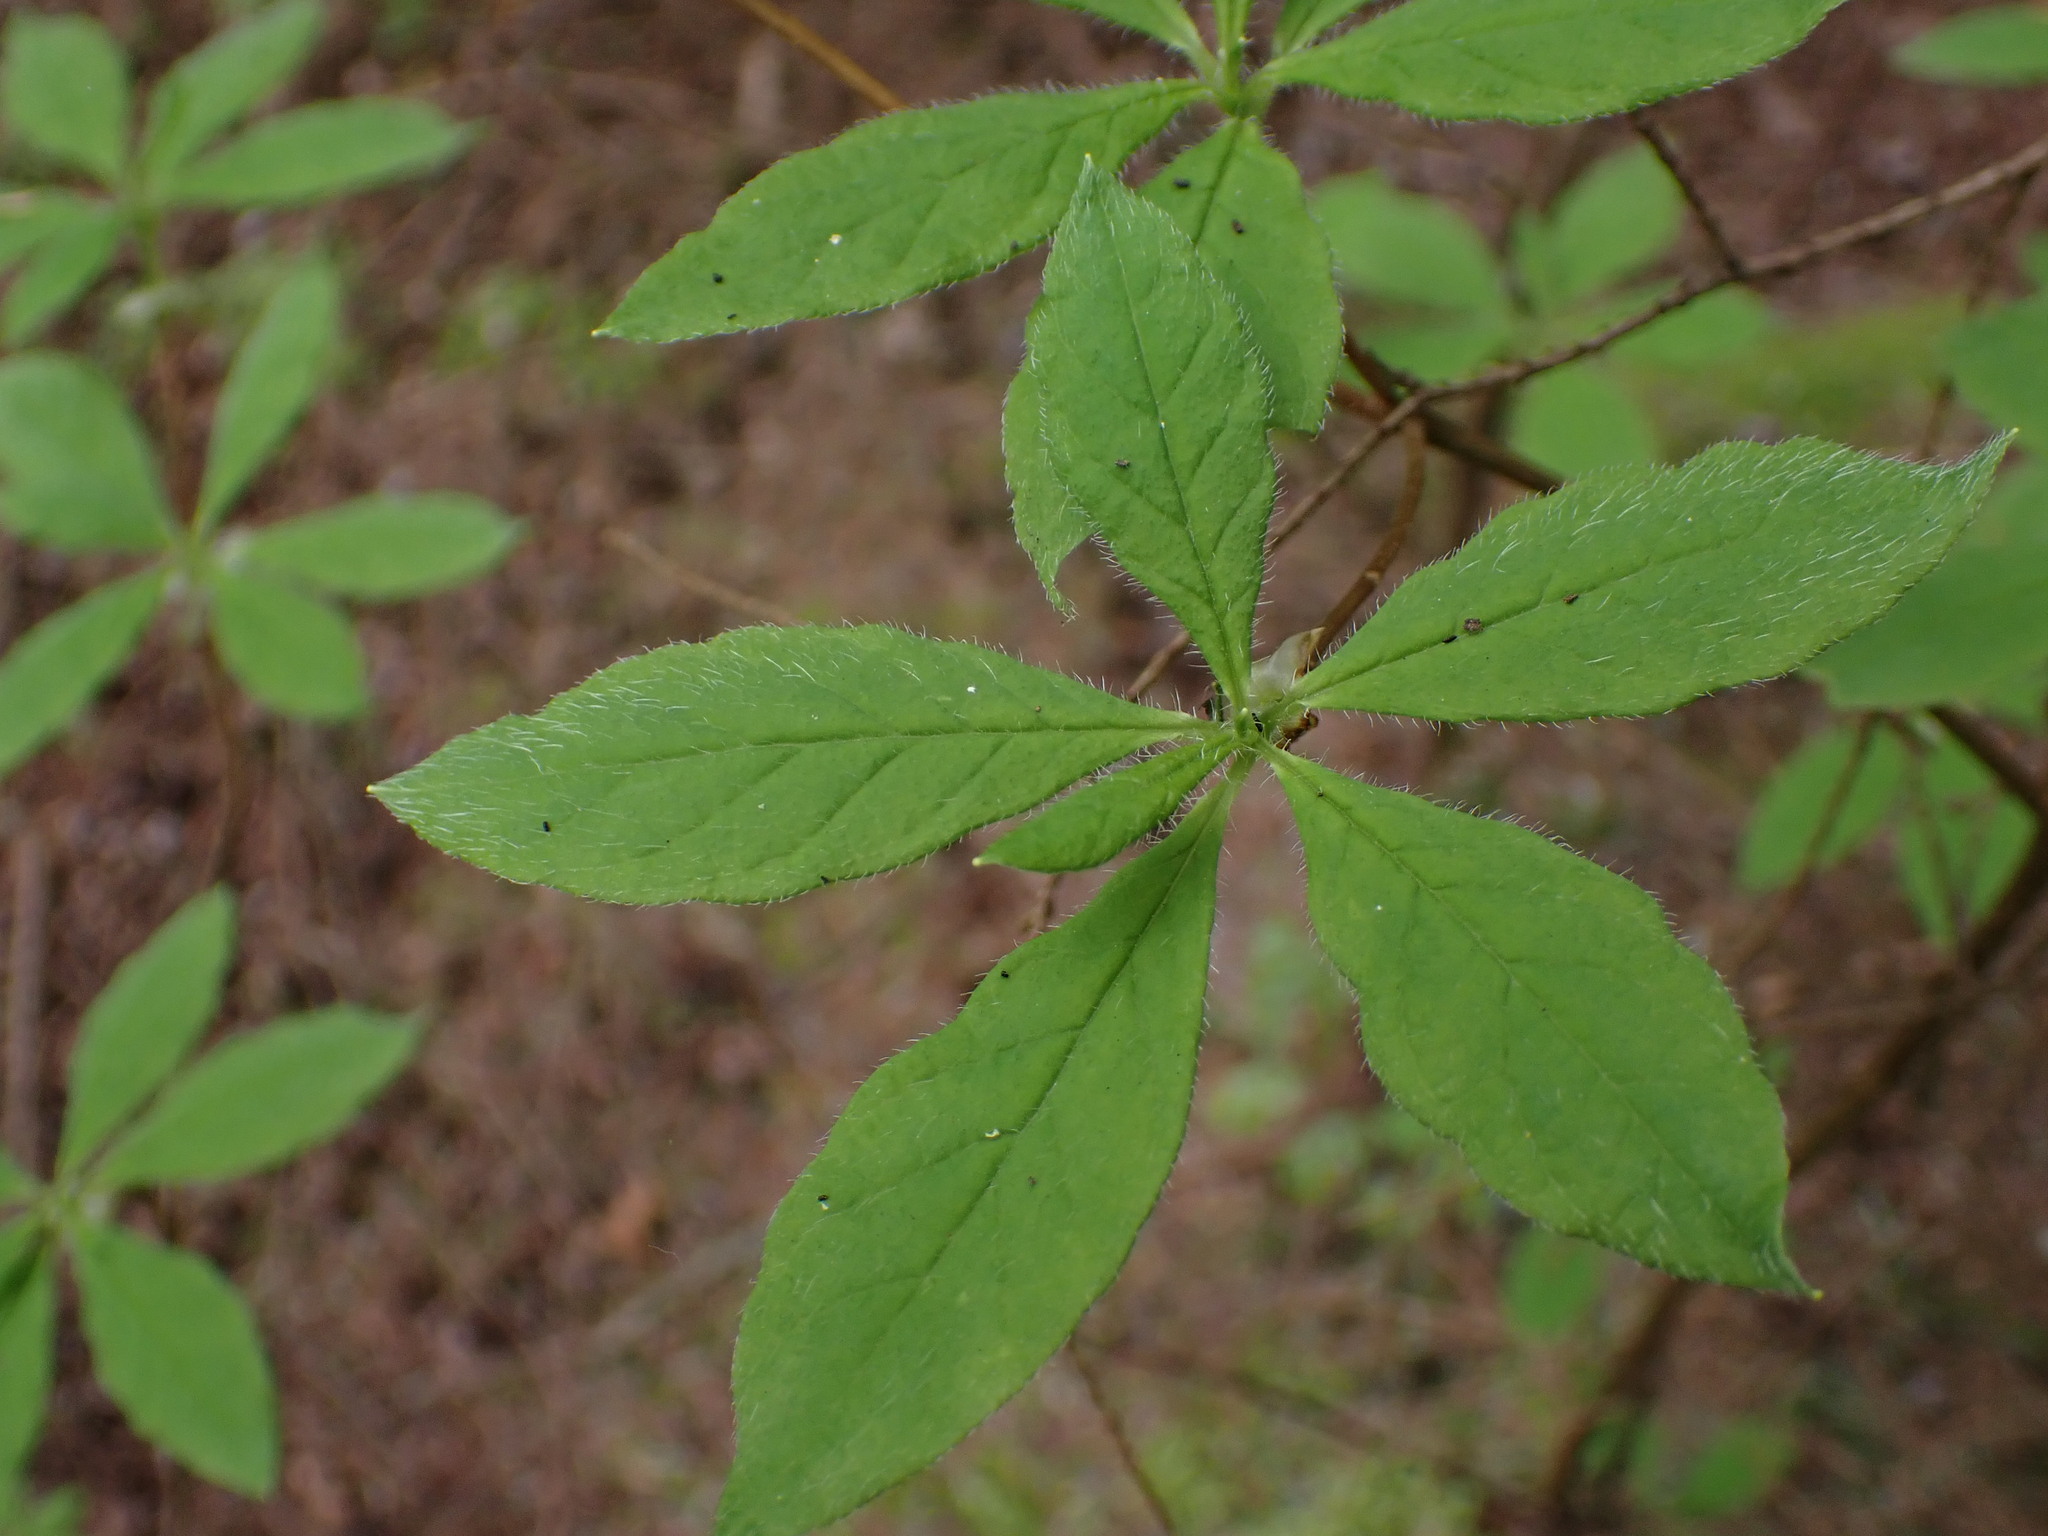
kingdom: Plantae
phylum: Tracheophyta
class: Magnoliopsida
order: Ericales
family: Ericaceae
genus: Rhododendron
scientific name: Rhododendron menziesii
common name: Pacific menziesia
